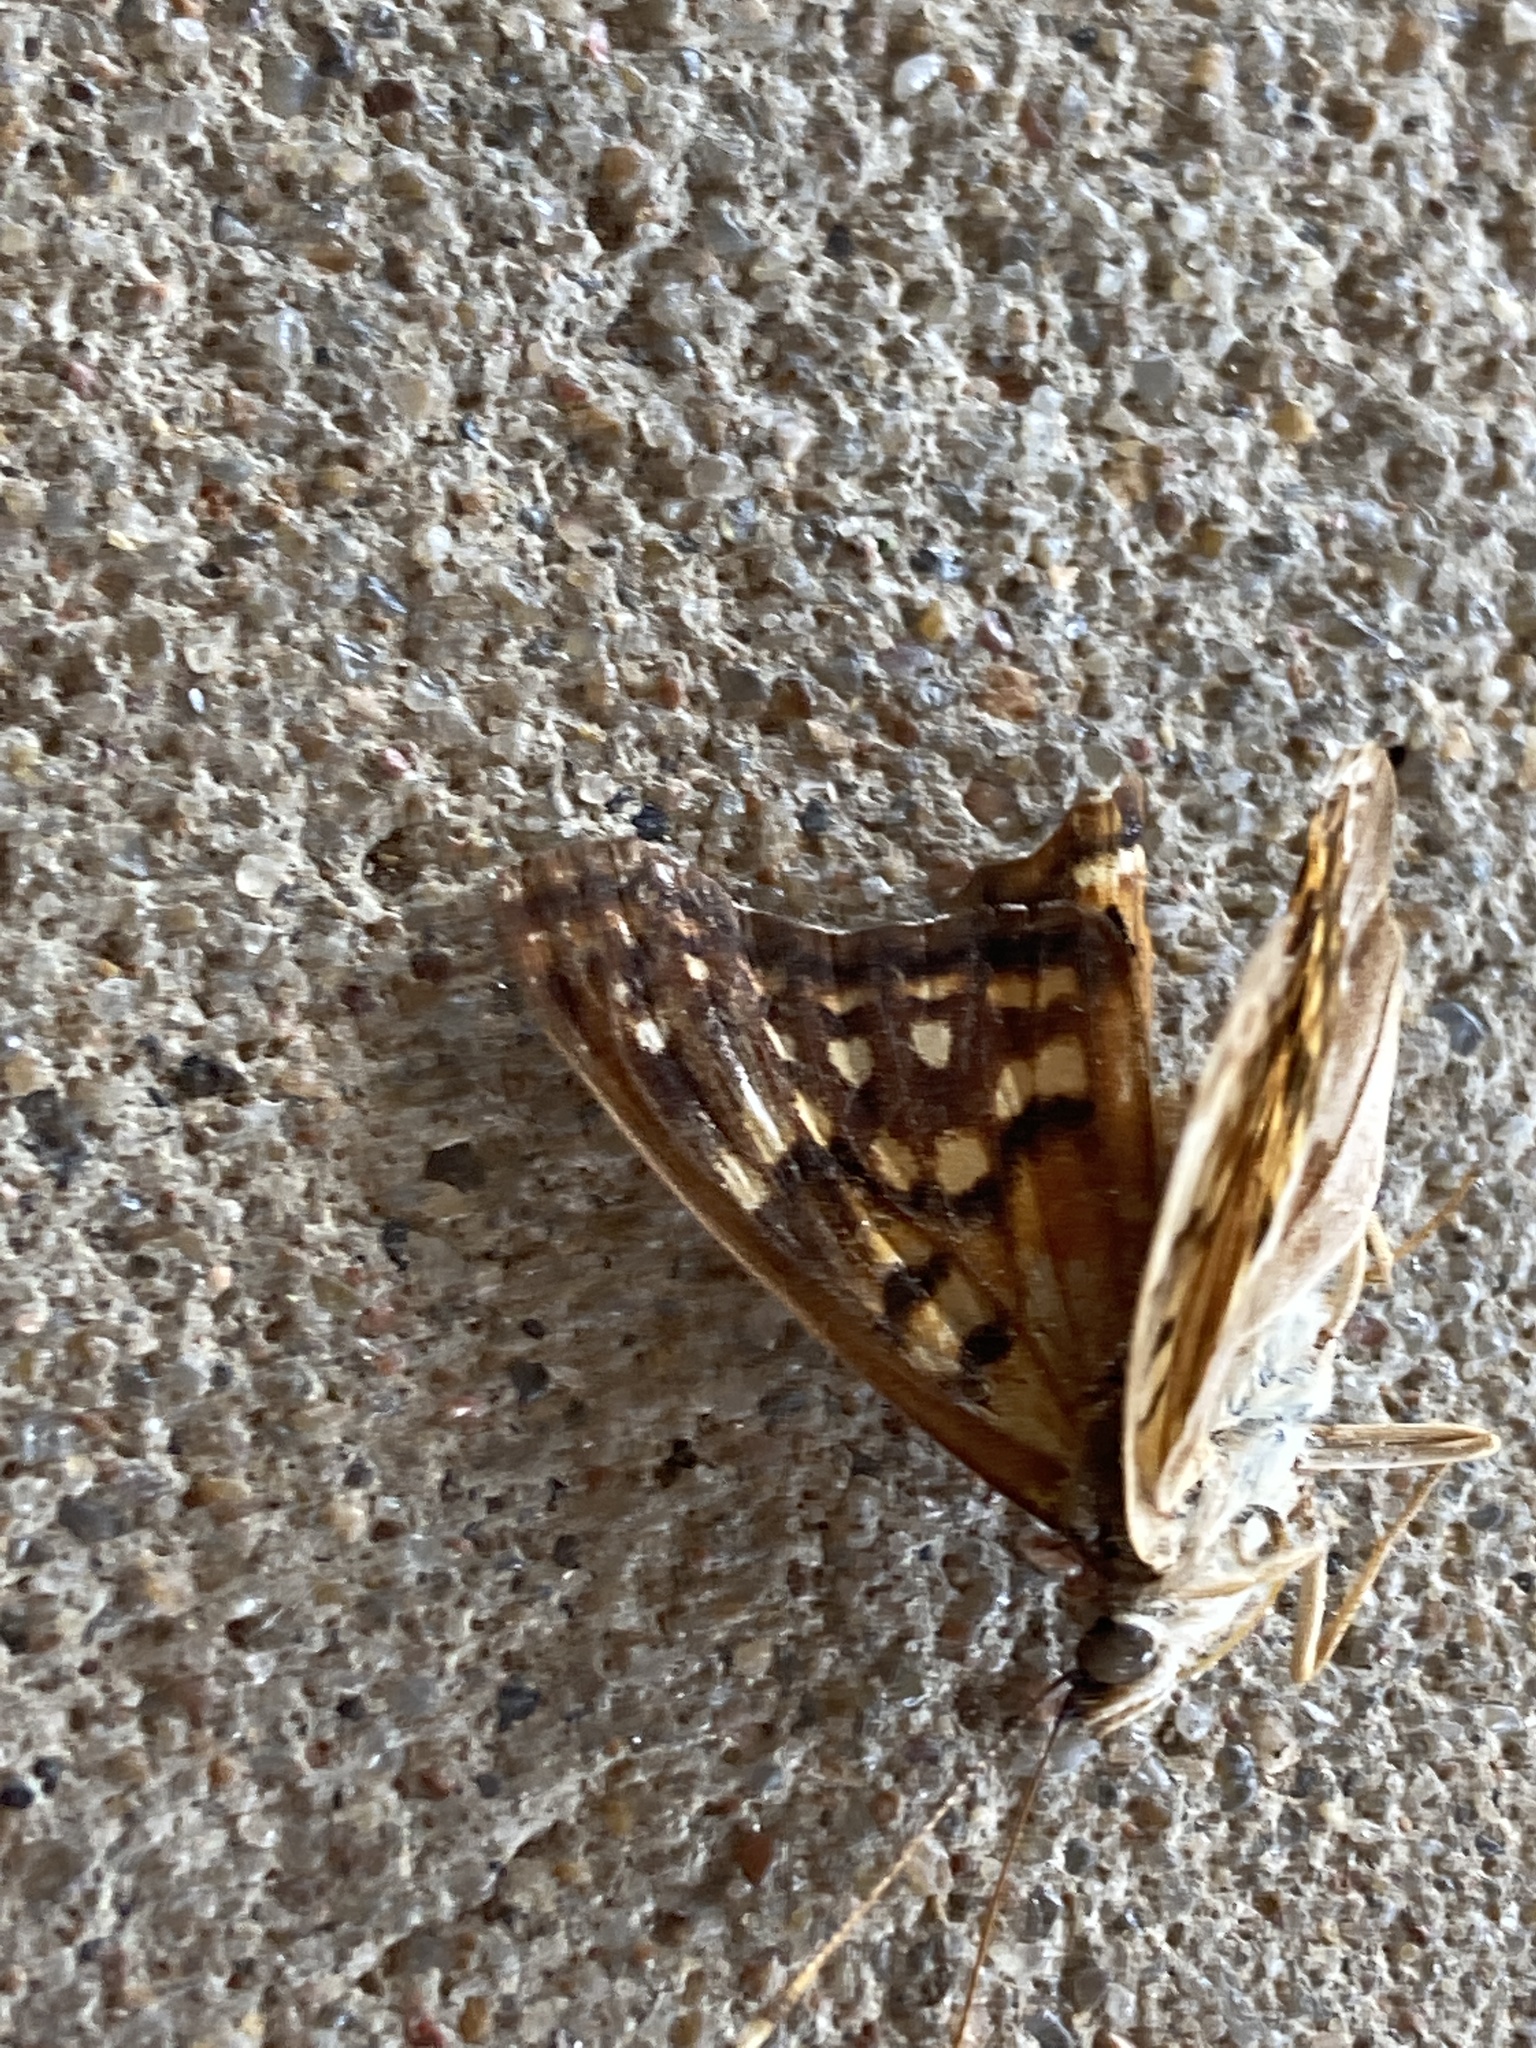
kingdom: Animalia
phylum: Arthropoda
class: Insecta
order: Lepidoptera
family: Nymphalidae
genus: Asterocampa
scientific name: Asterocampa clyton
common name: Tawny emperor
